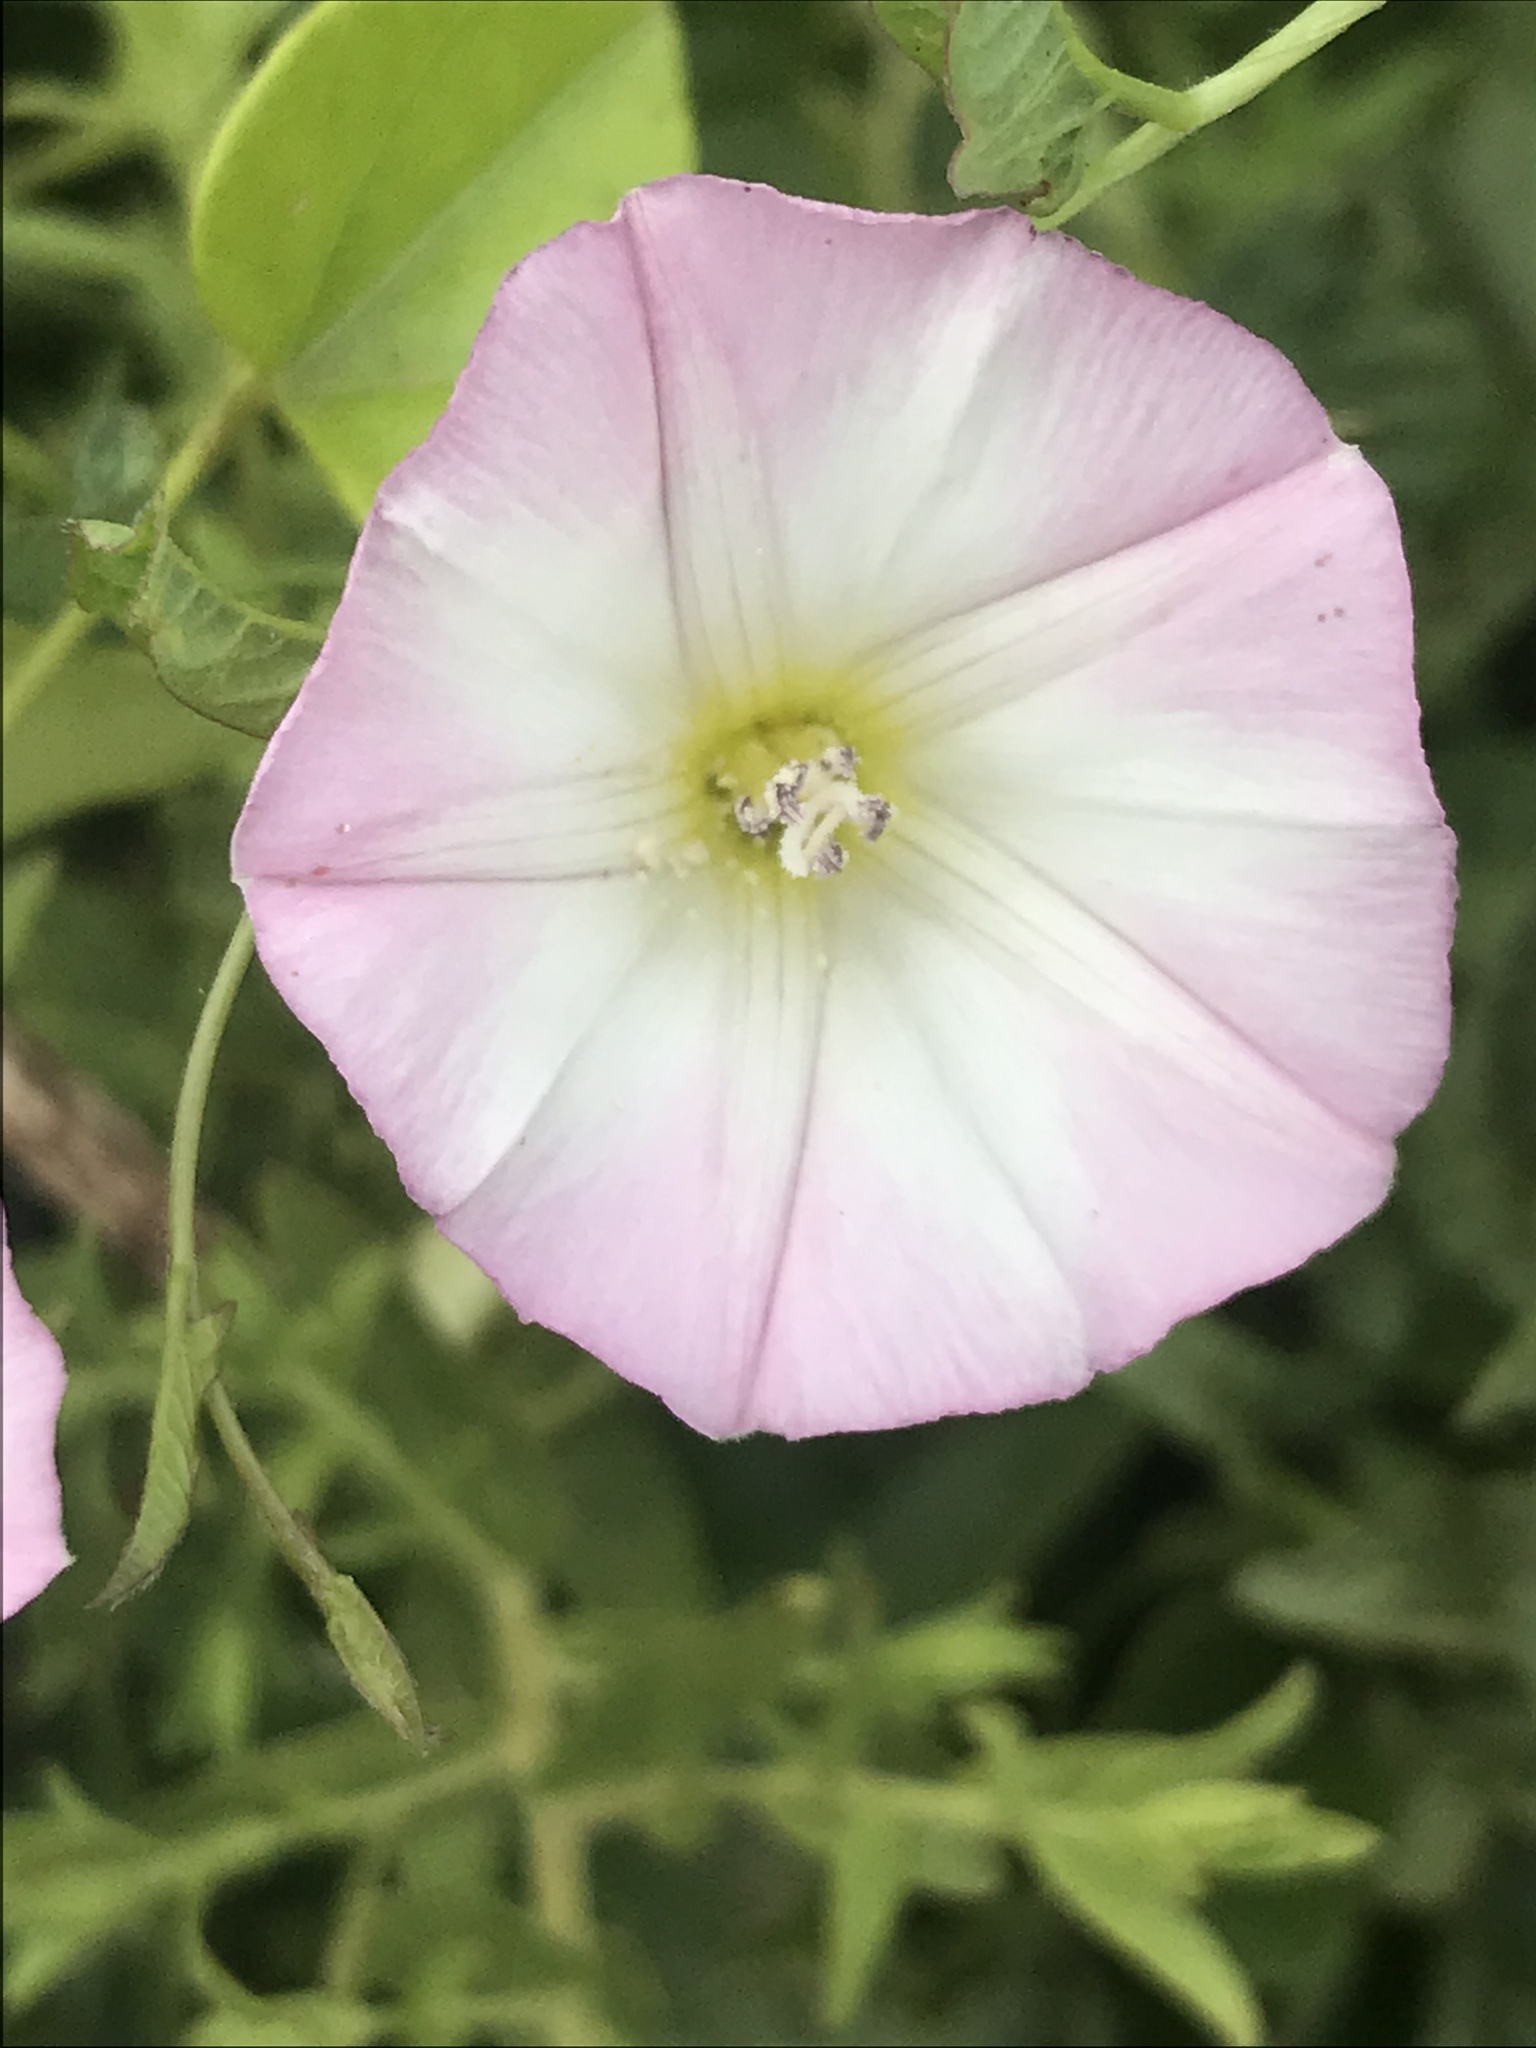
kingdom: Plantae
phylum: Tracheophyta
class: Magnoliopsida
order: Solanales
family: Convolvulaceae
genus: Convolvulus
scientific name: Convolvulus arvensis
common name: Field bindweed
